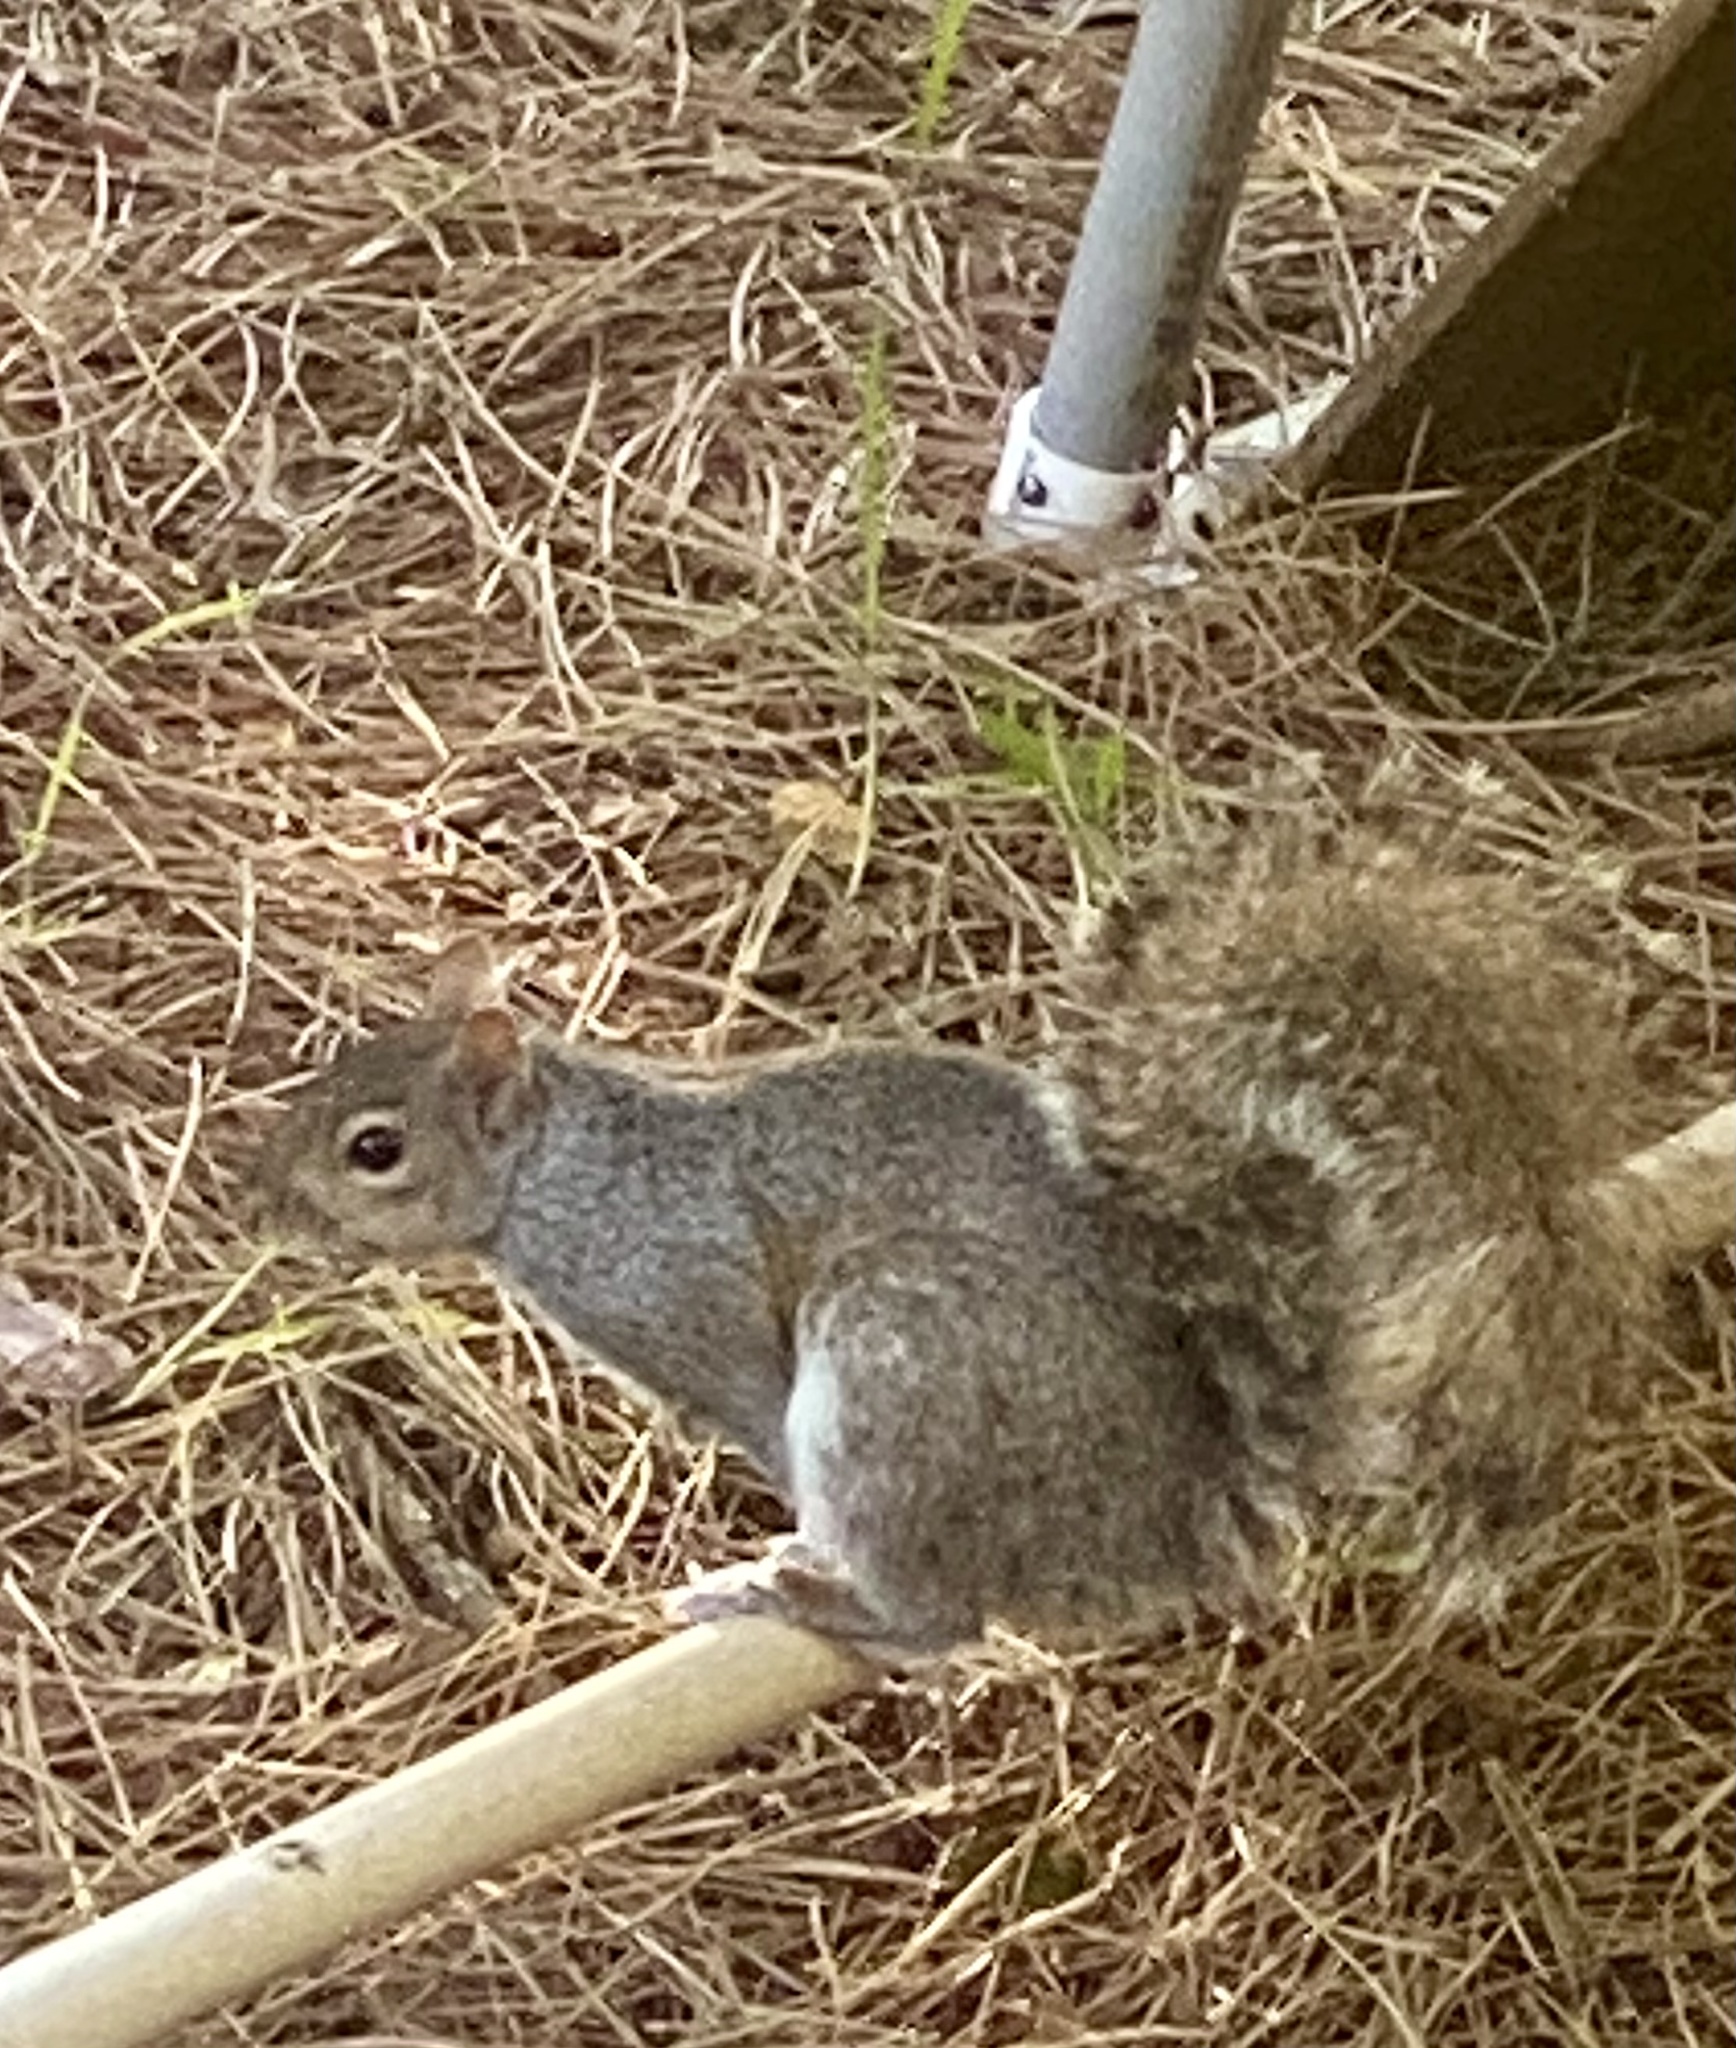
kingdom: Animalia
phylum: Chordata
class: Mammalia
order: Rodentia
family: Sciuridae
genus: Sciurus
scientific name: Sciurus carolinensis
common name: Eastern gray squirrel
